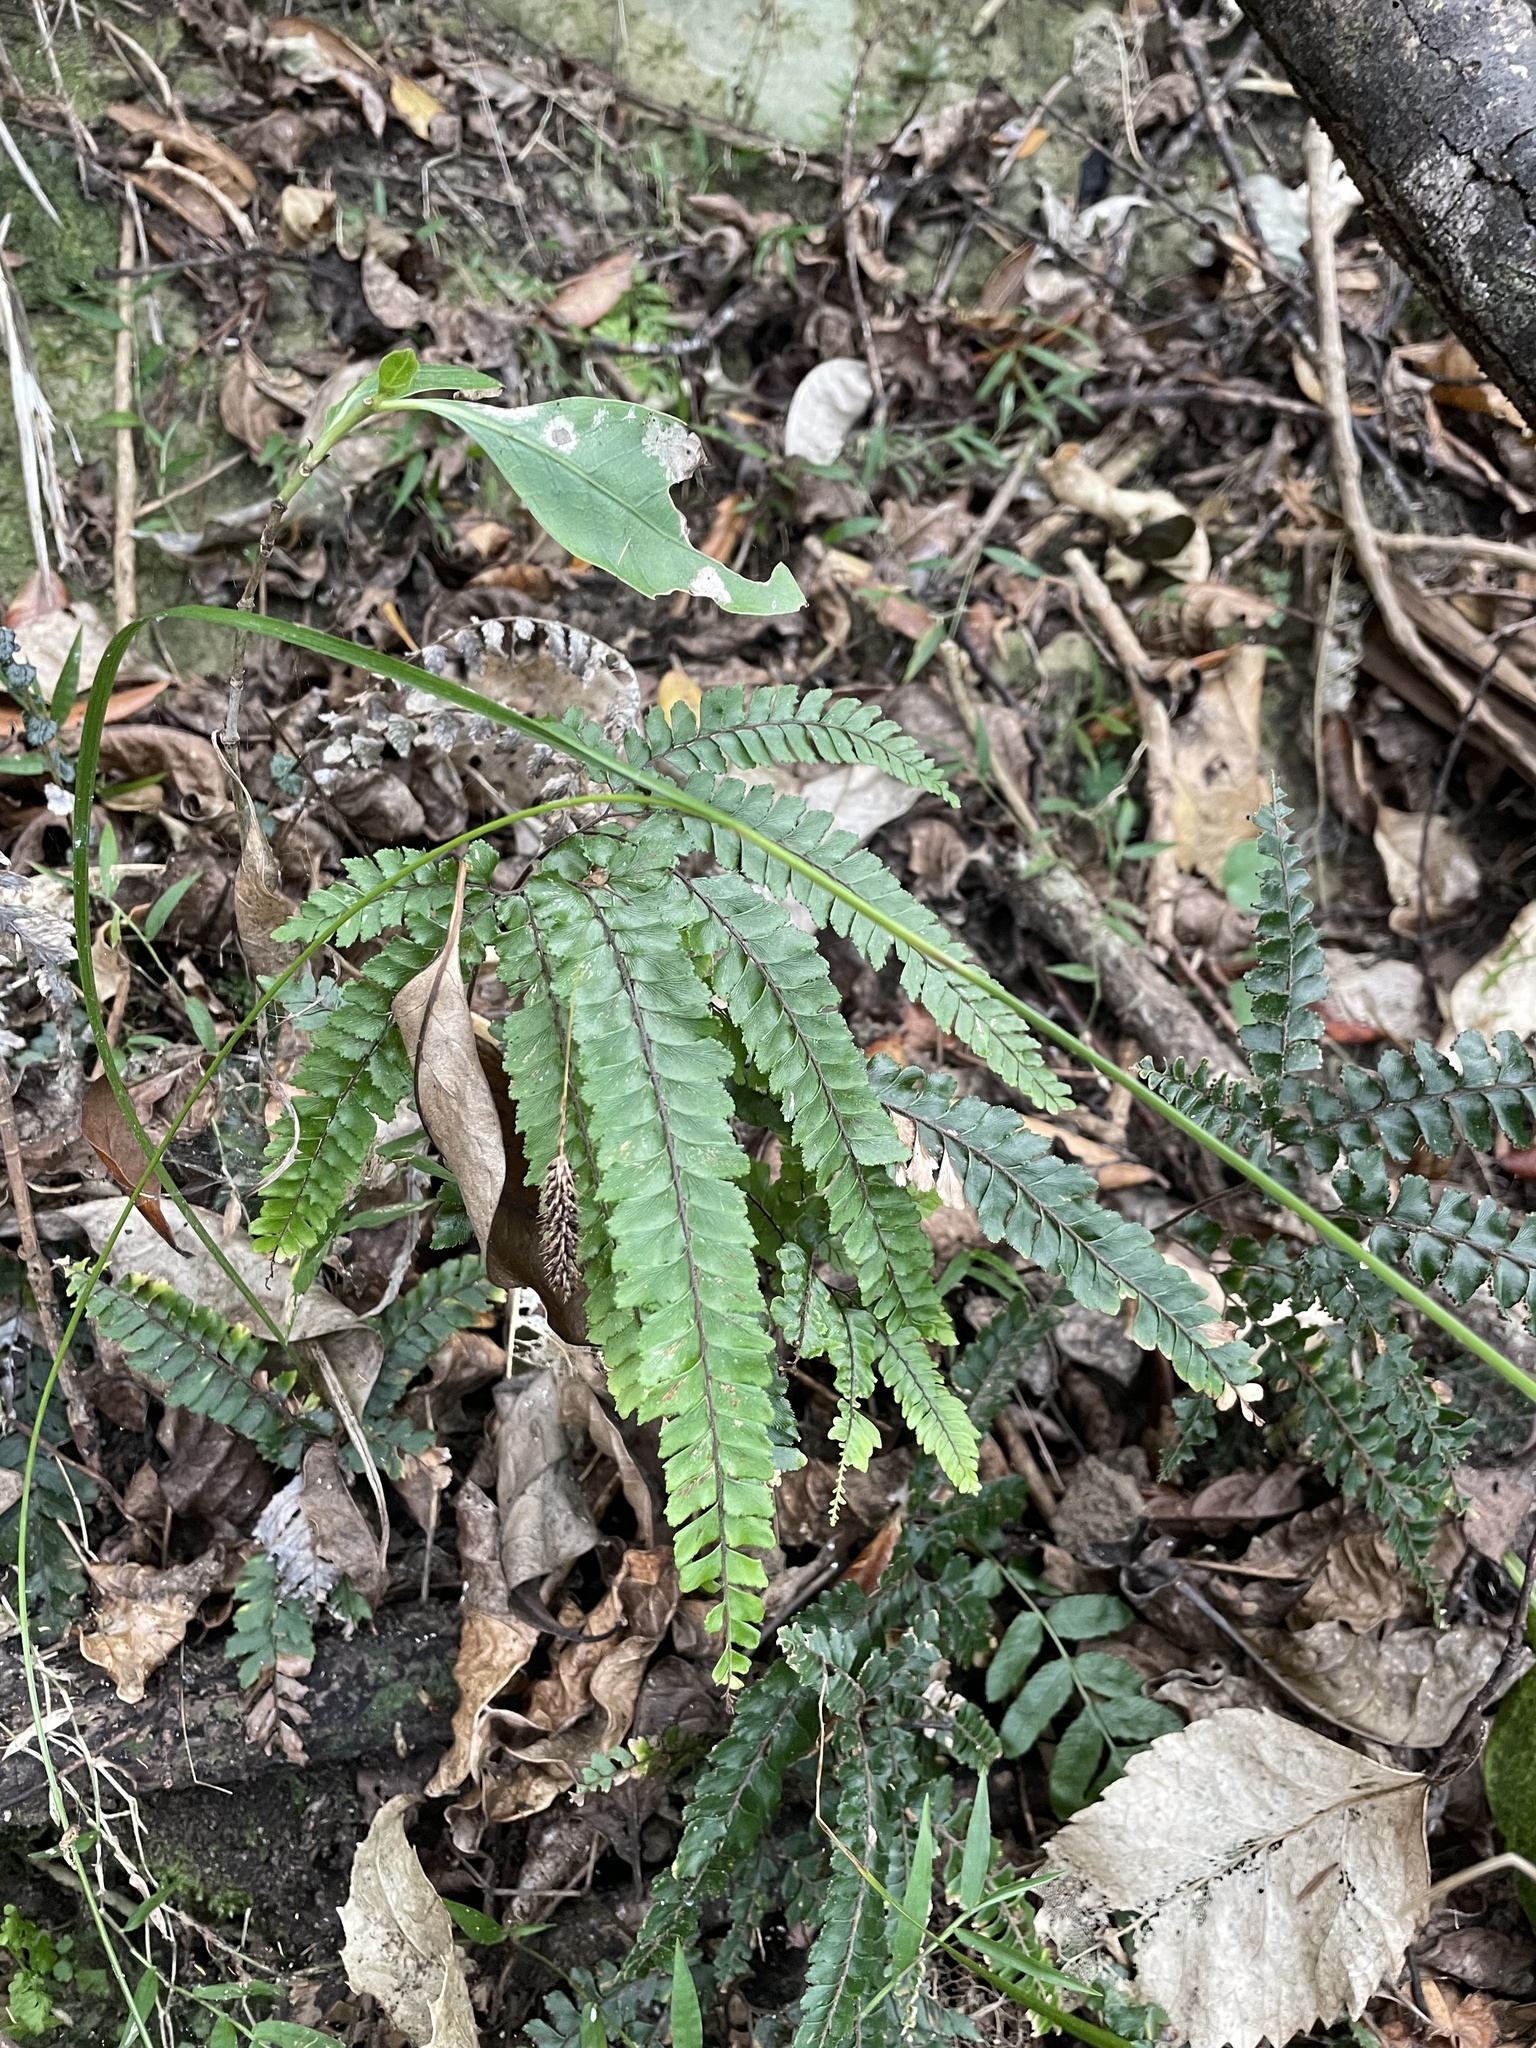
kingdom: Plantae
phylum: Tracheophyta
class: Polypodiopsida
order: Polypodiales
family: Pteridaceae
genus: Adiantum
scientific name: Adiantum hispidulum
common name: Rough maidenhair
